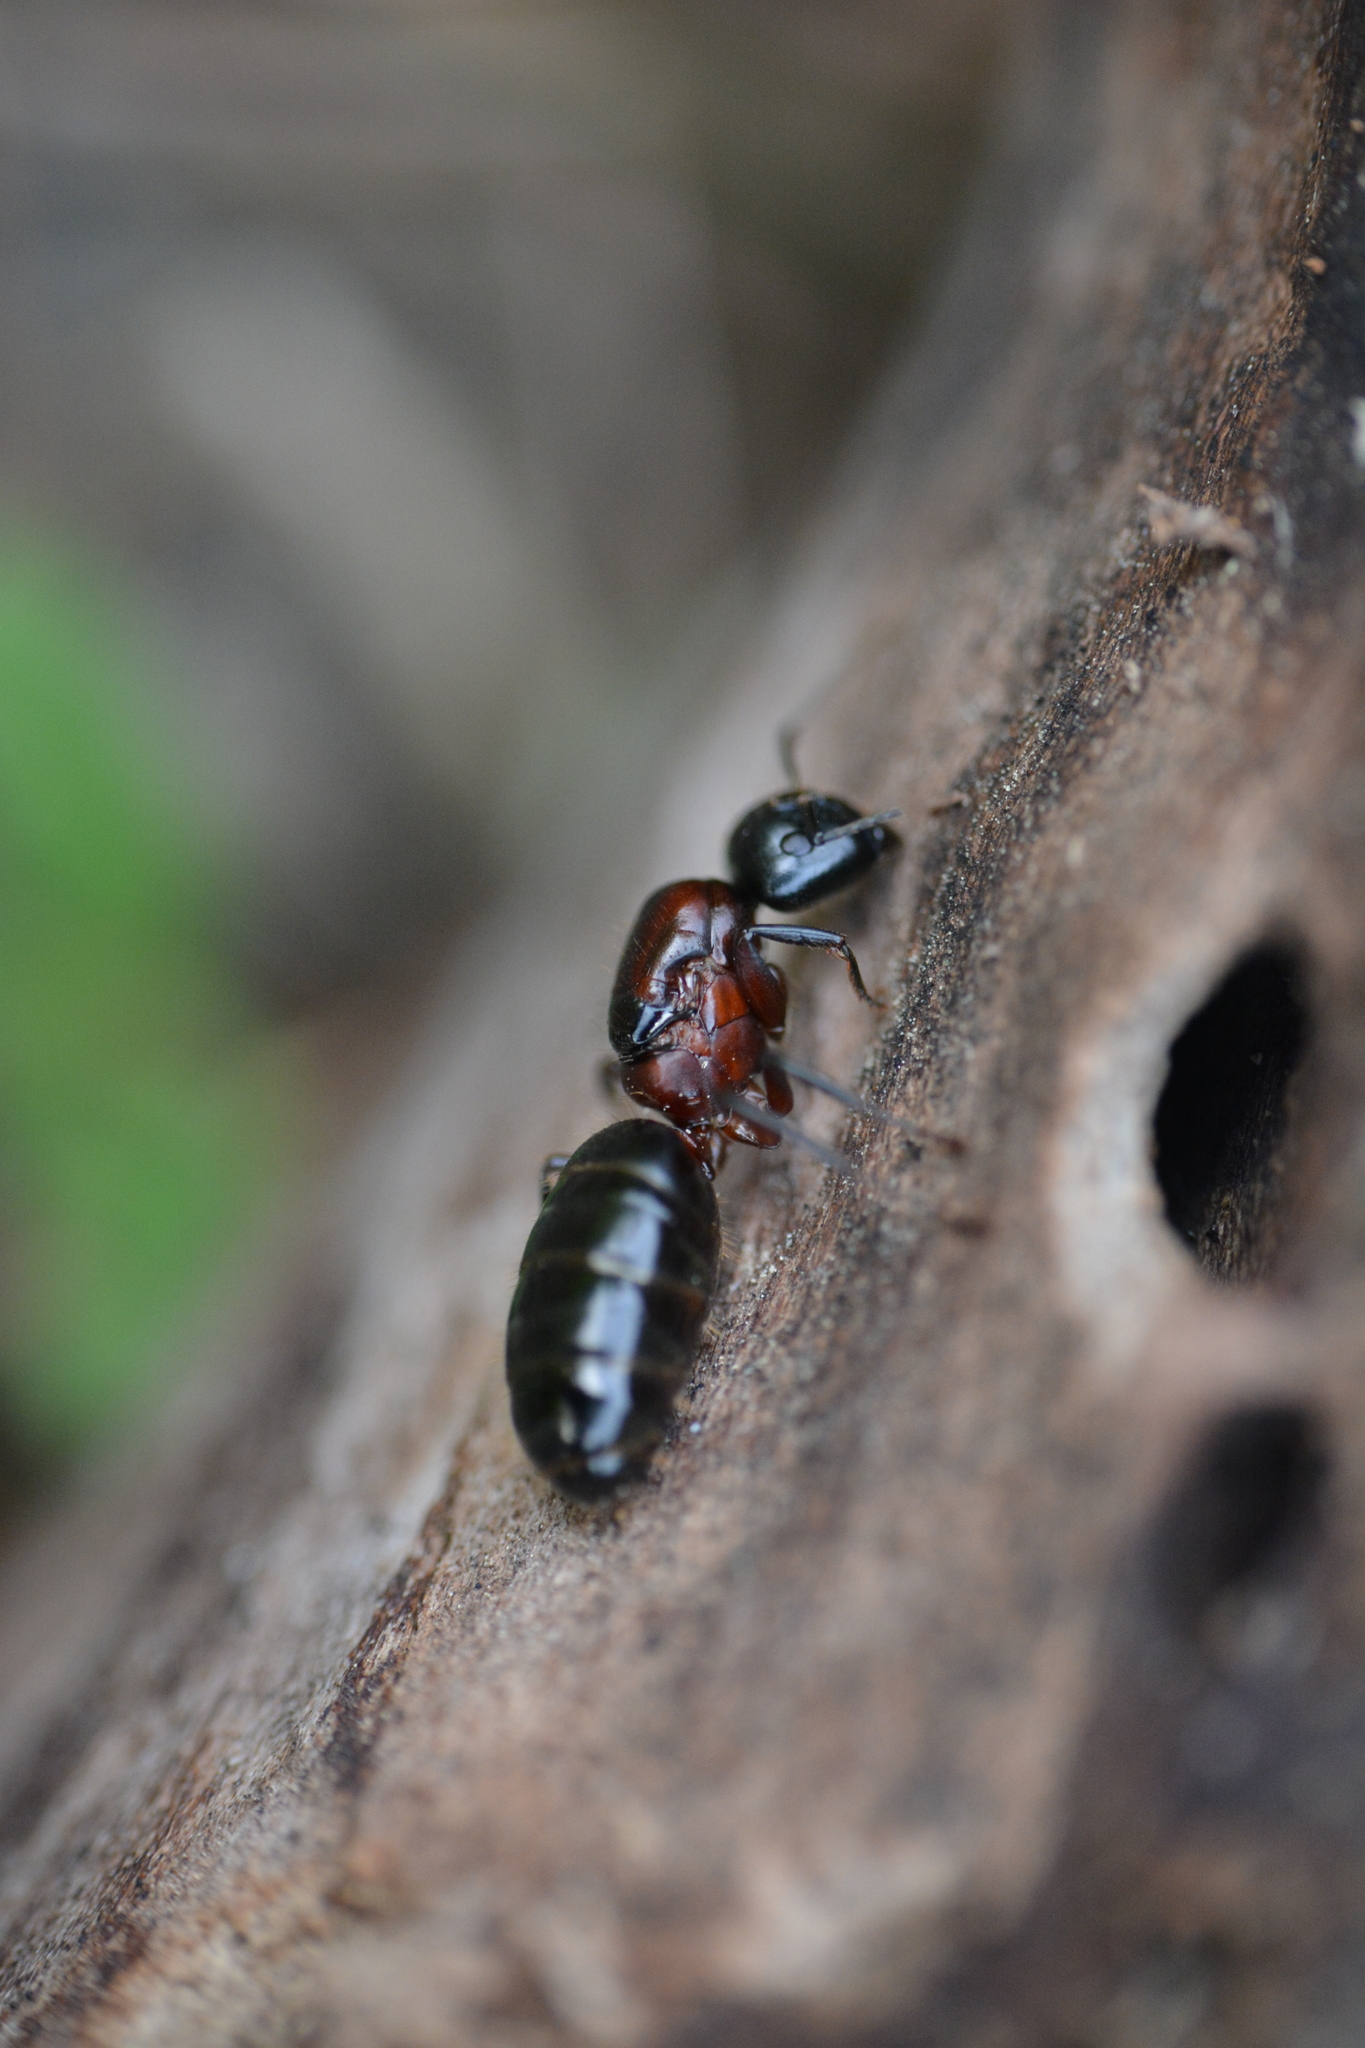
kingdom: Animalia
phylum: Arthropoda
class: Insecta
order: Hymenoptera
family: Formicidae
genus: Camponotus
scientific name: Camponotus novaeboracensis
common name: New york carpenter ant
